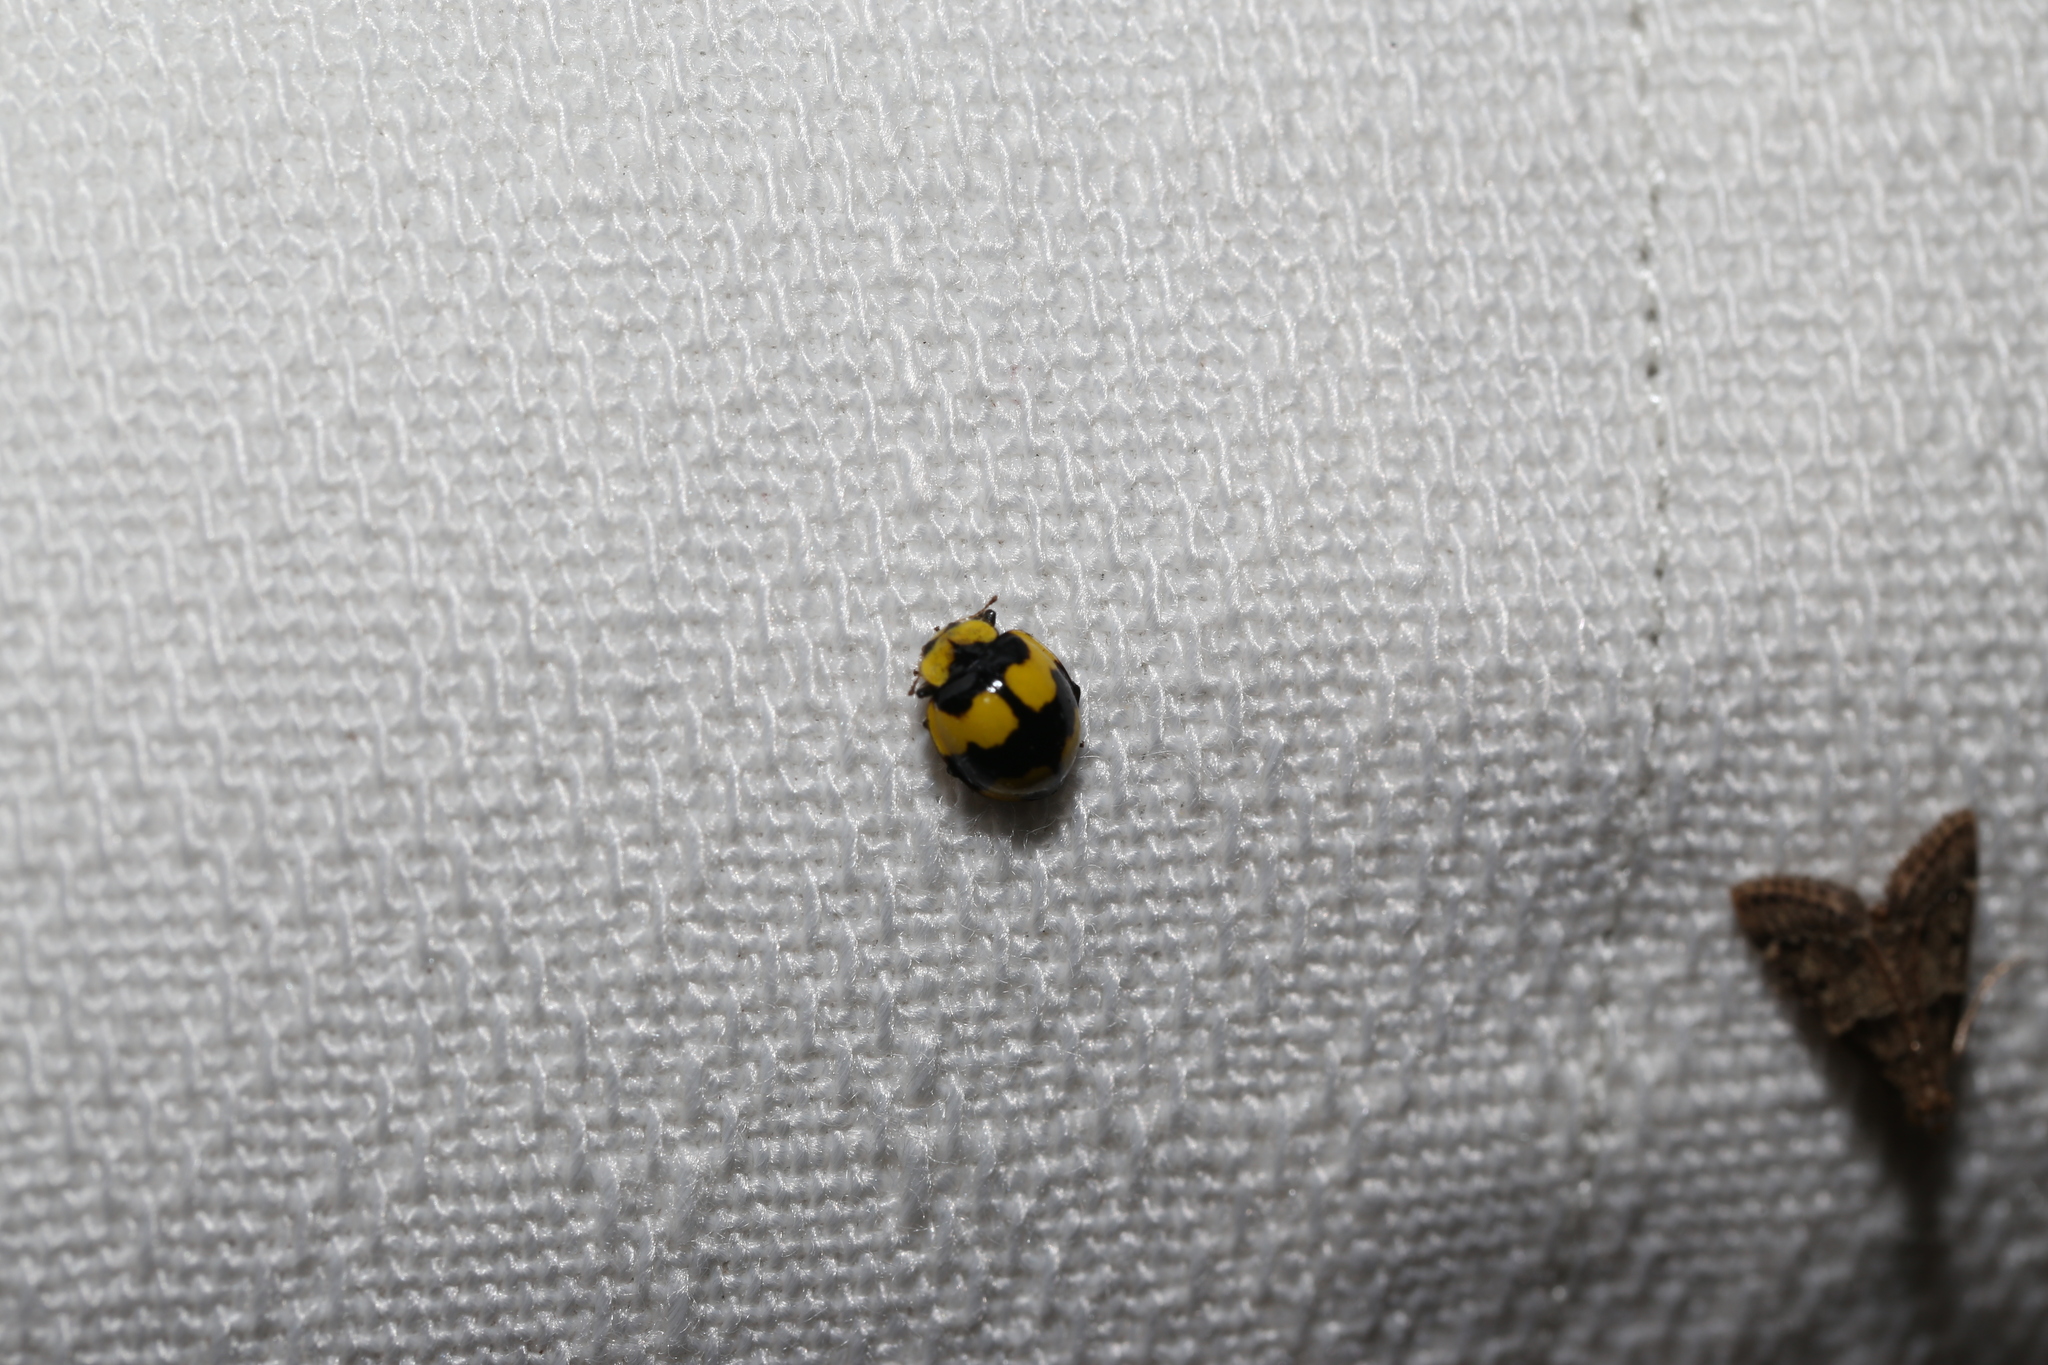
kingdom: Animalia
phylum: Arthropoda
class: Insecta
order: Coleoptera
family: Coccinellidae
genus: Illeis
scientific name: Illeis galbula
